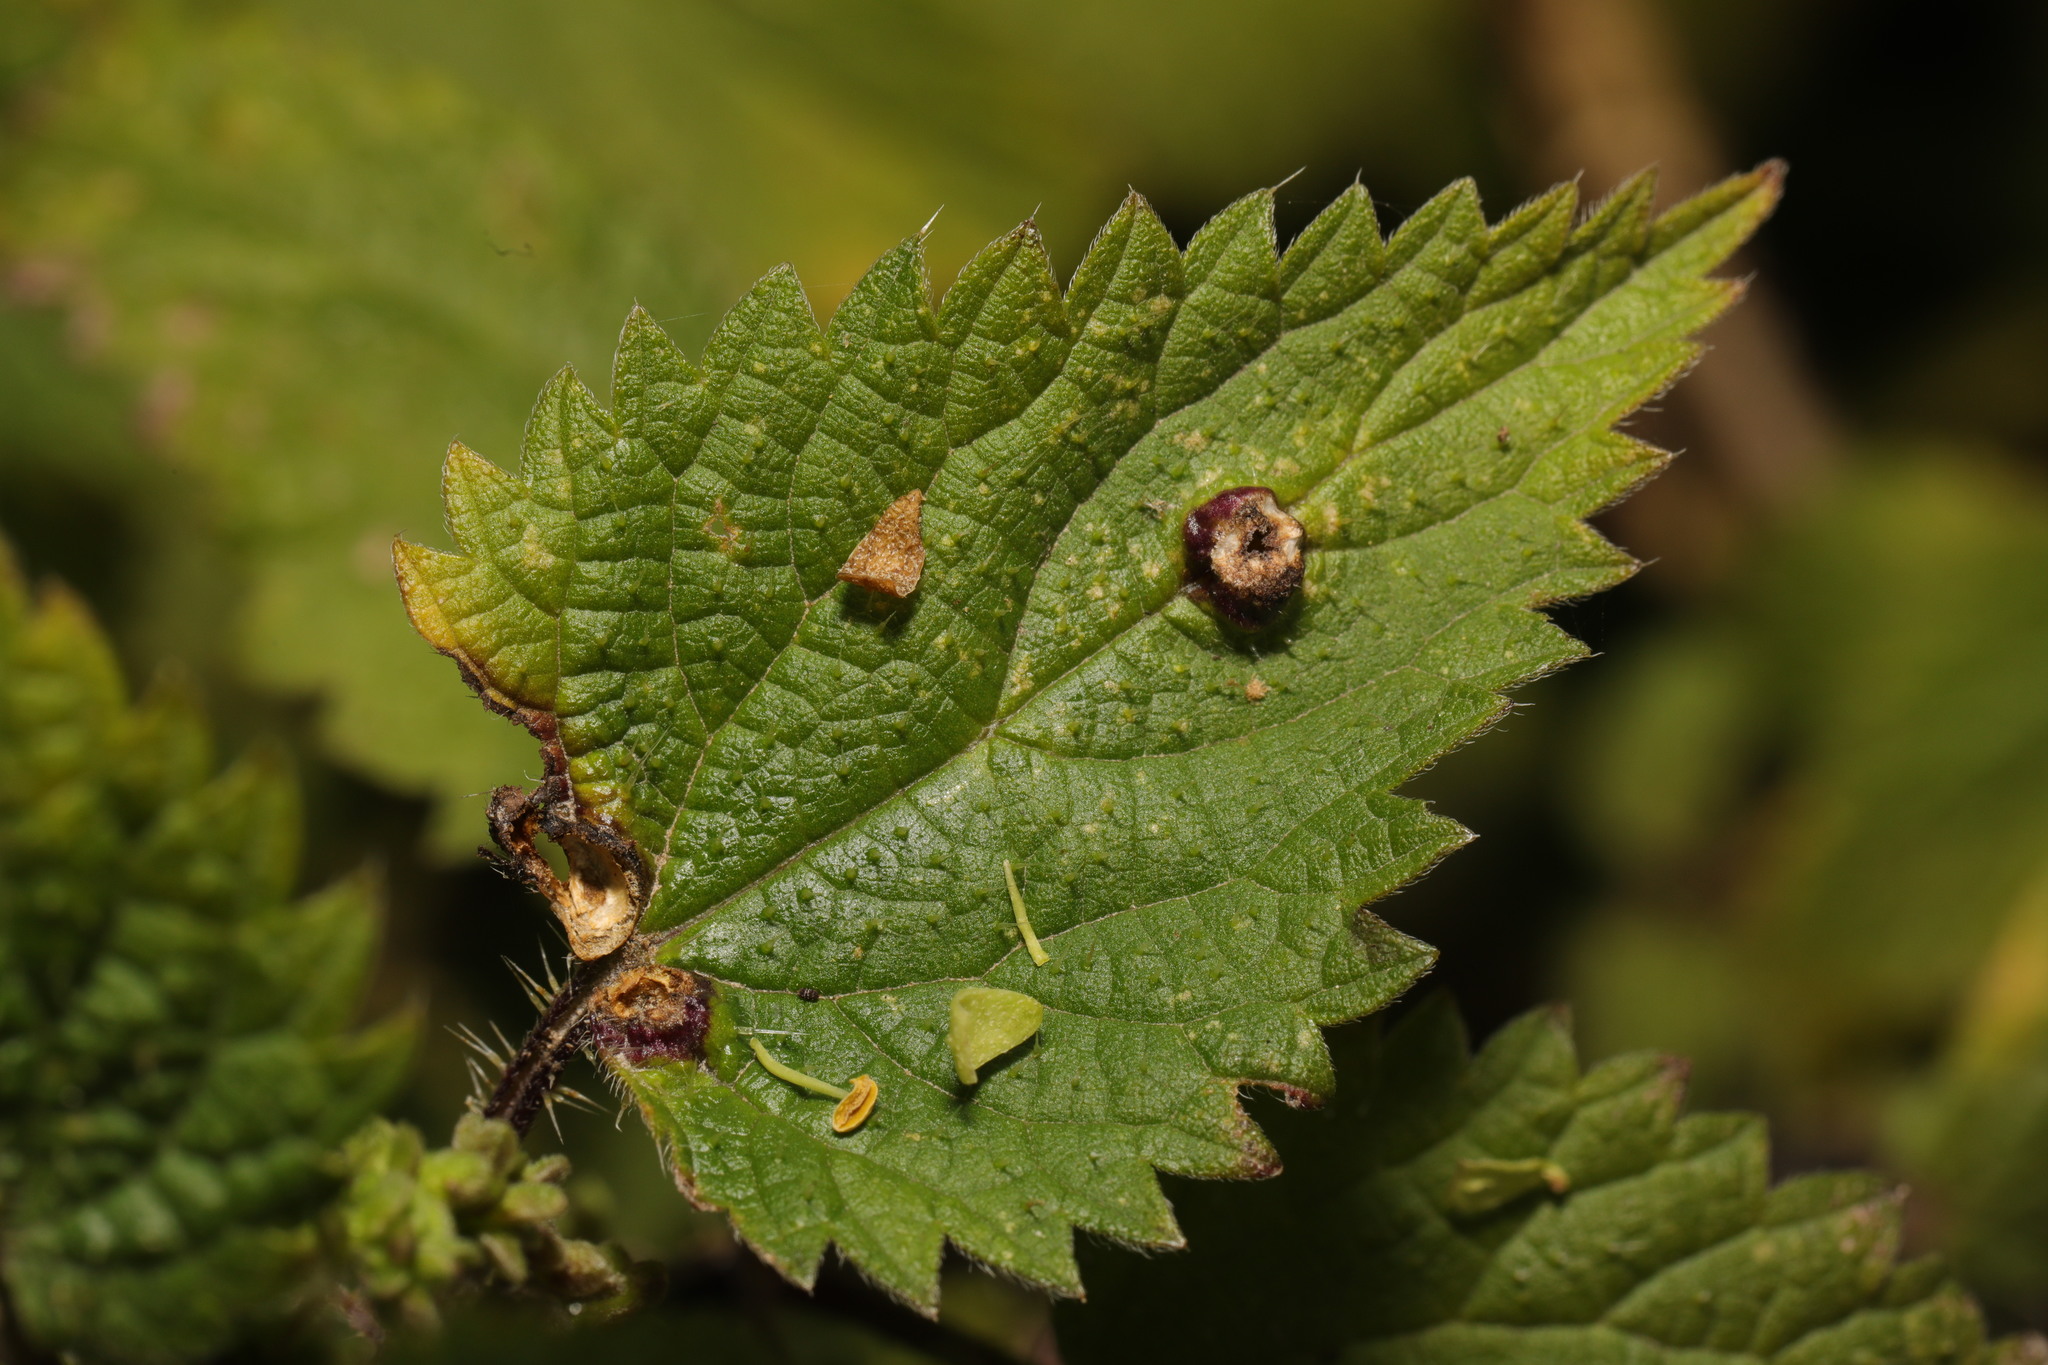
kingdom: Animalia
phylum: Arthropoda
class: Insecta
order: Diptera
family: Cecidomyiidae
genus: Dasineura
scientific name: Dasineura urticae
